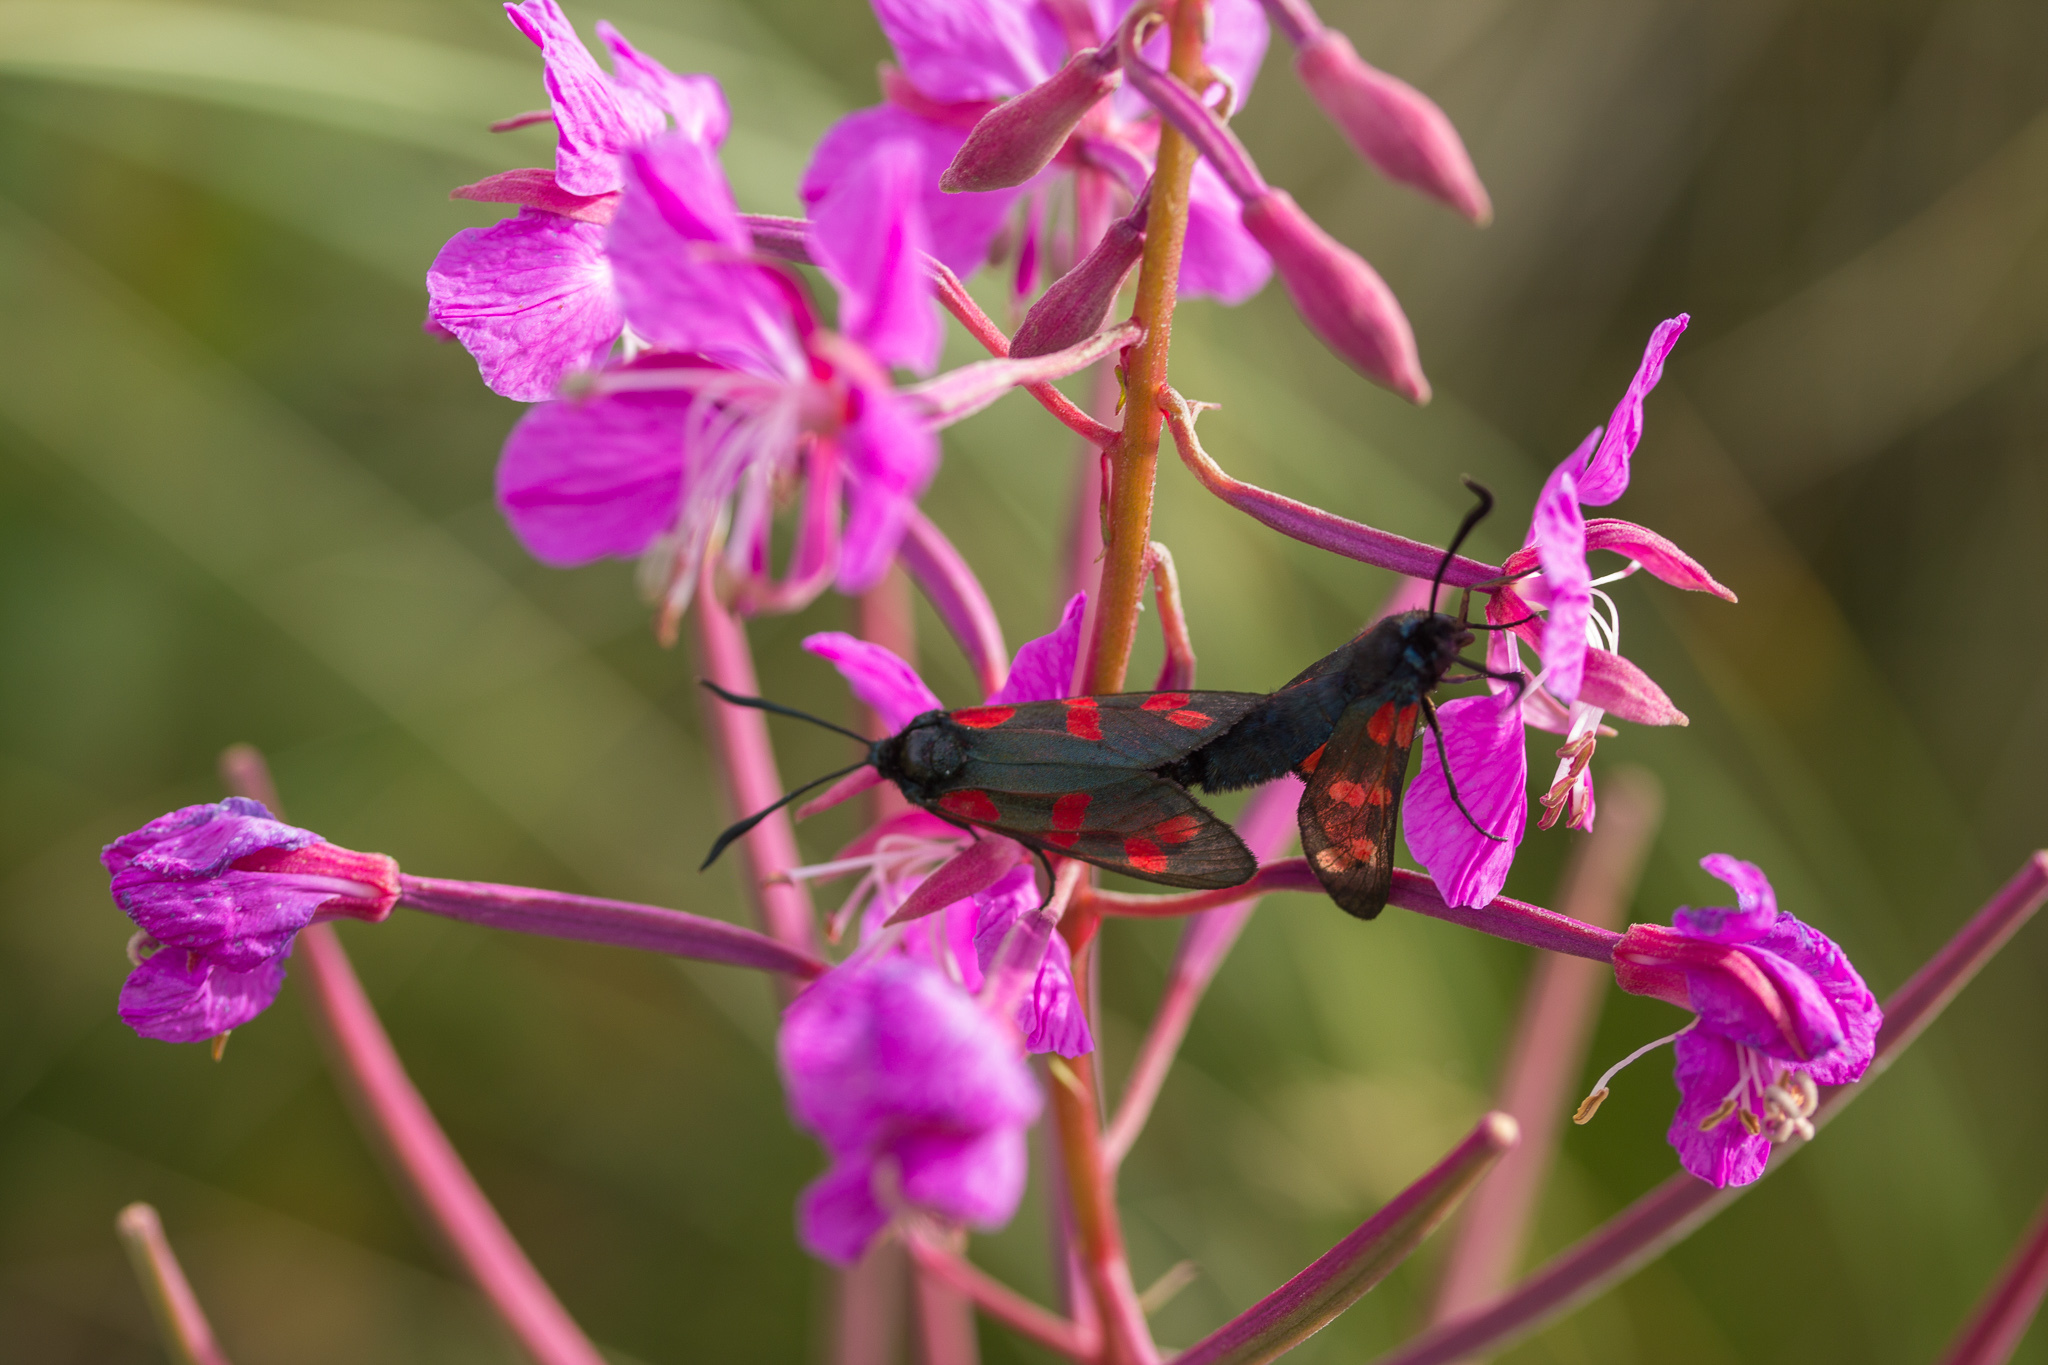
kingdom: Animalia
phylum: Arthropoda
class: Insecta
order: Lepidoptera
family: Zygaenidae
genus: Zygaena
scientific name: Zygaena filipendulae
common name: Six-spot burnet
